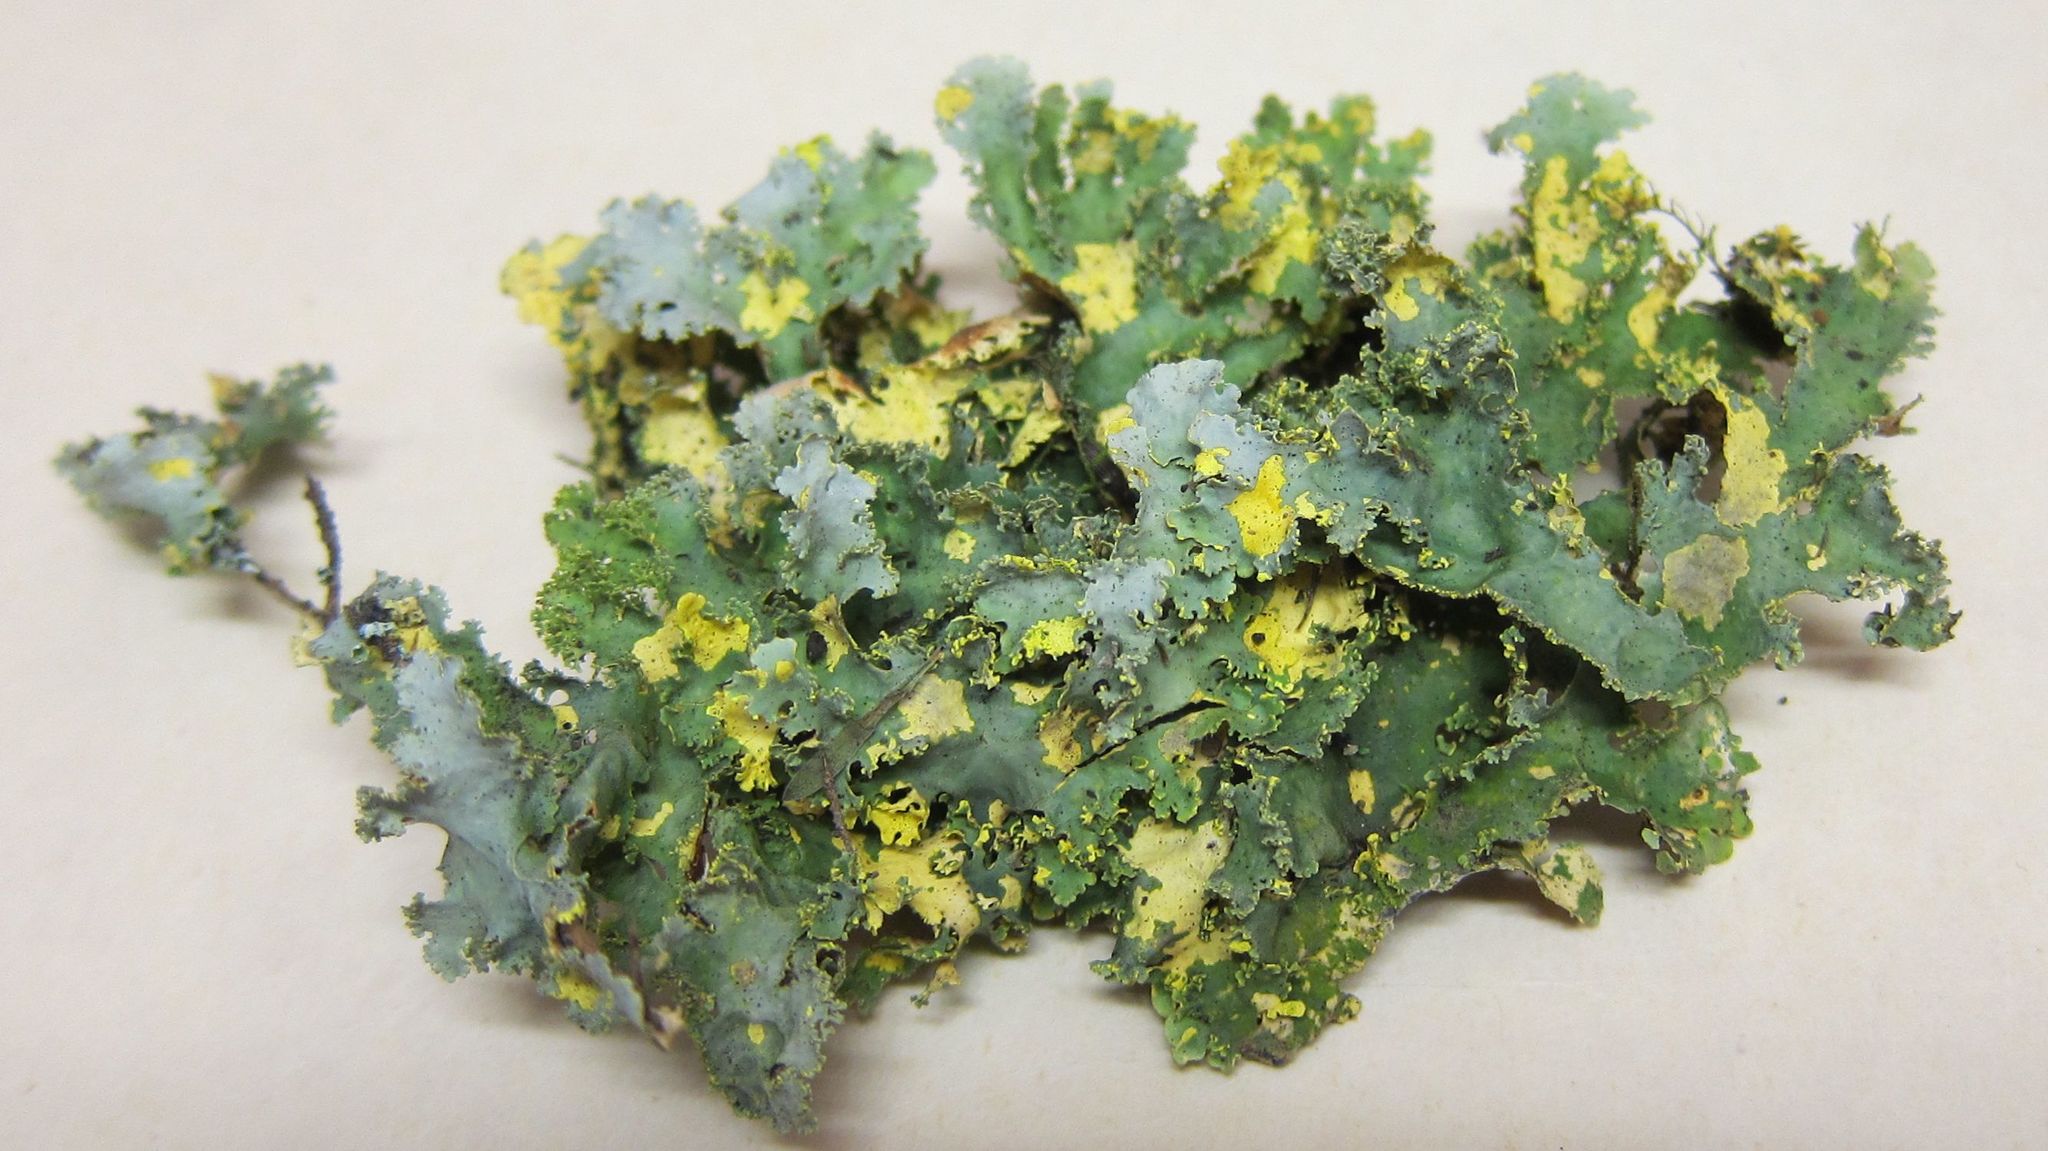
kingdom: Fungi
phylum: Ascomycota
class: Lecanoromycetes
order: Peltigerales
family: Lobariaceae
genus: Podostictina
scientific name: Podostictina pickeringii
